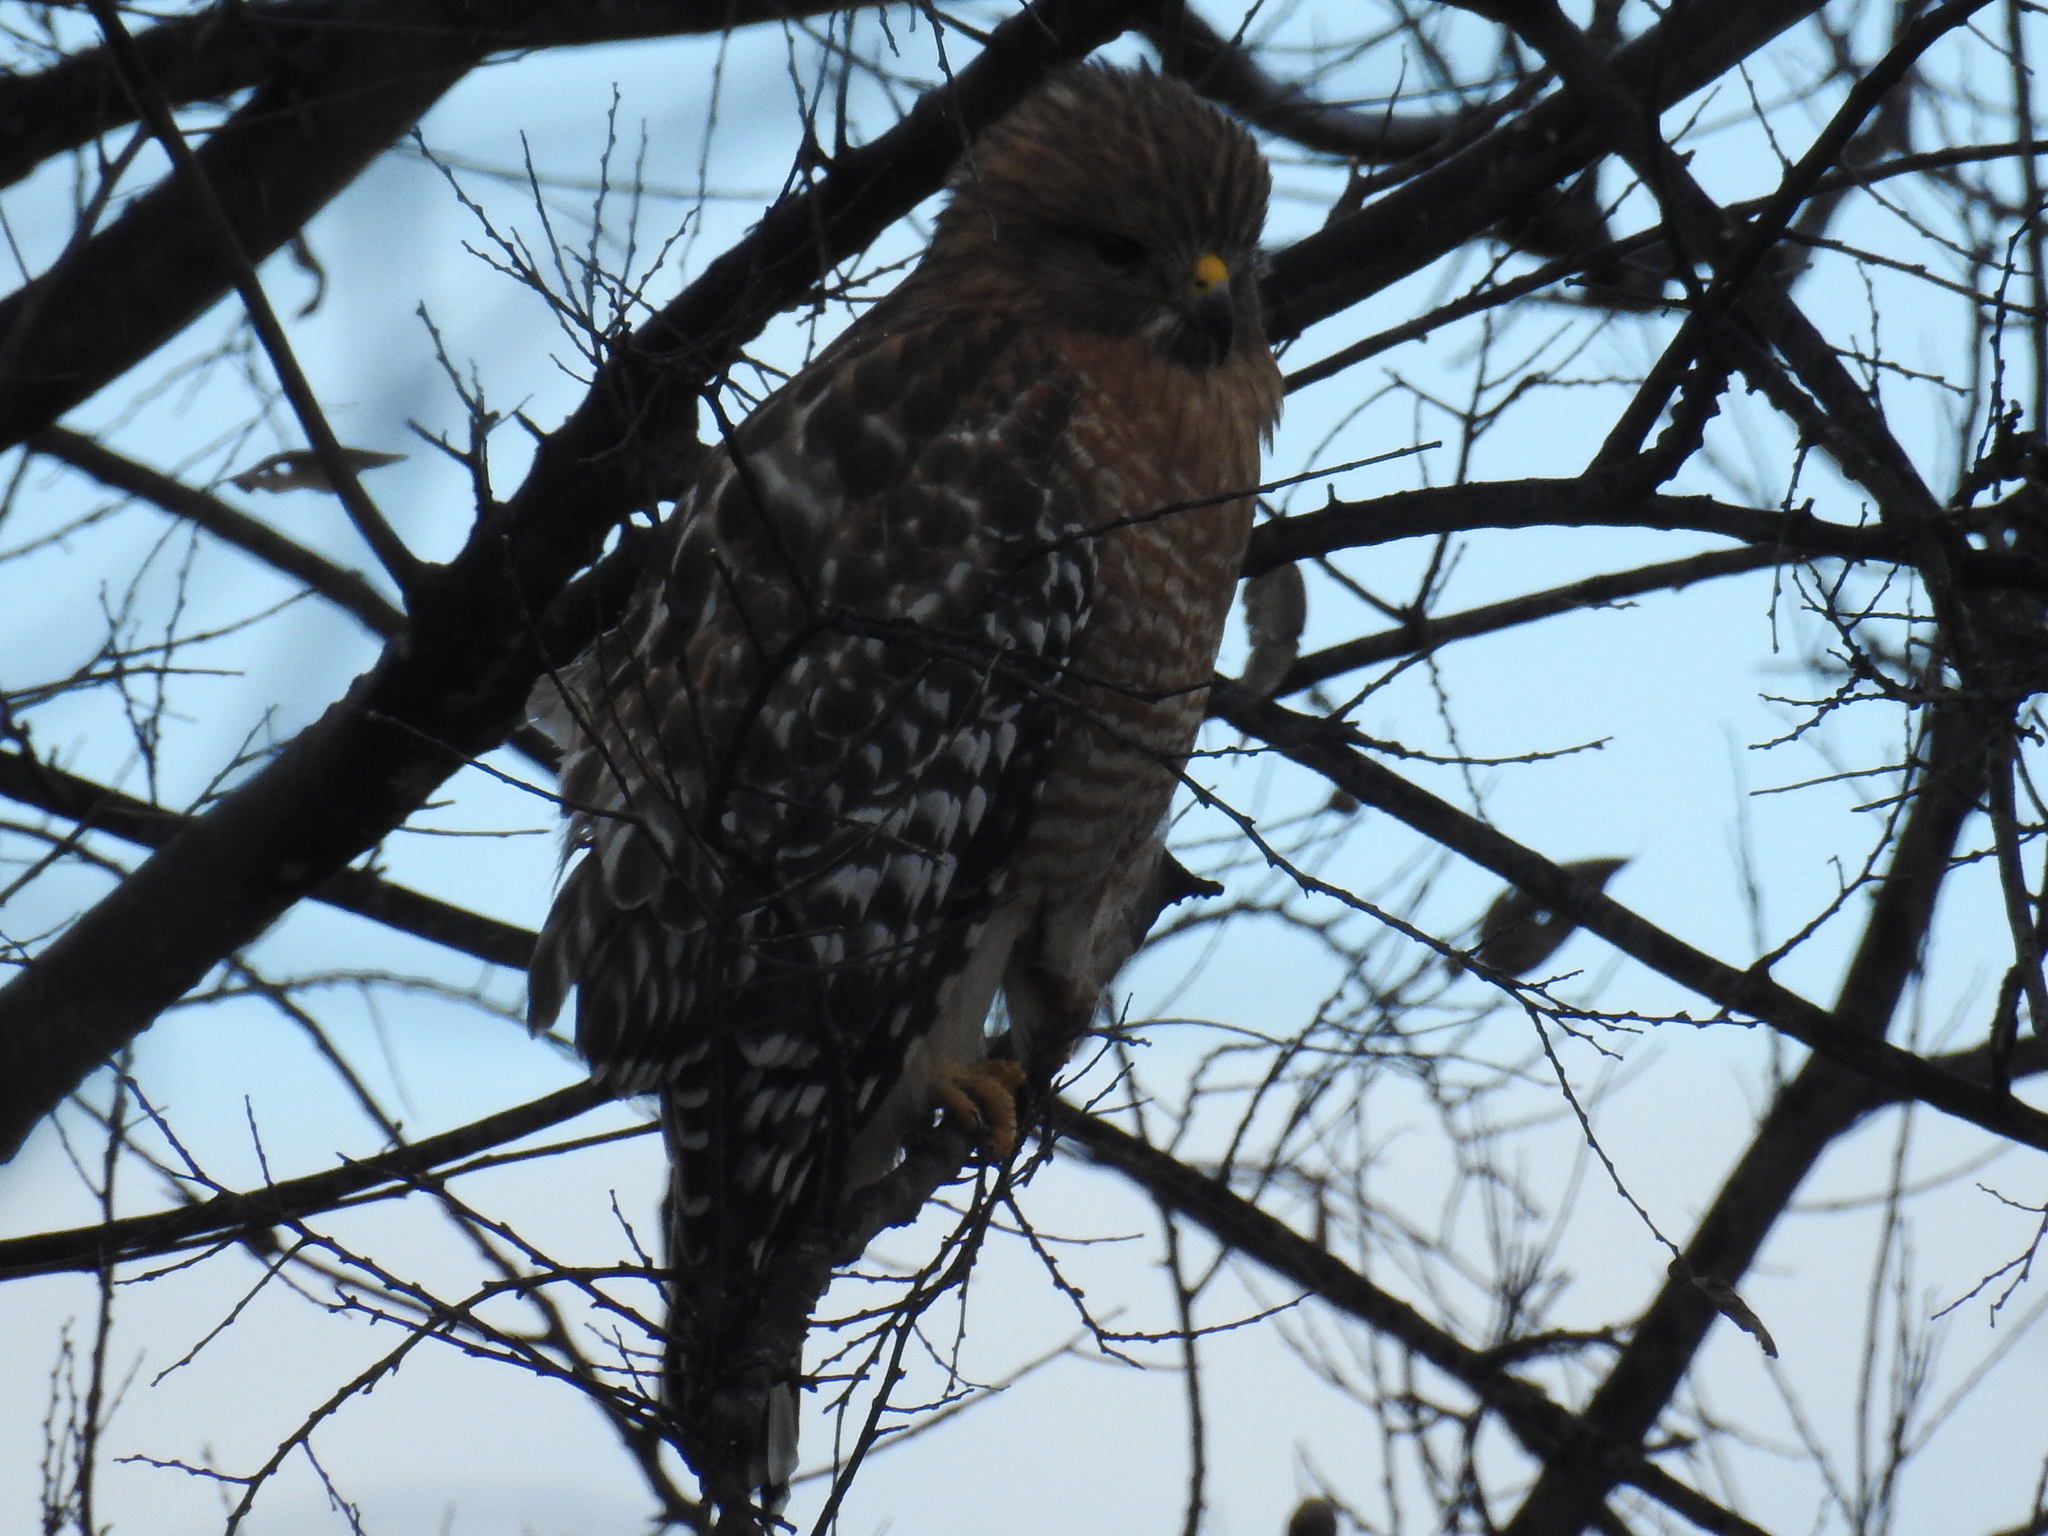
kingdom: Animalia
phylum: Chordata
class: Aves
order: Accipitriformes
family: Accipitridae
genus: Buteo
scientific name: Buteo lineatus
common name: Red-shouldered hawk
